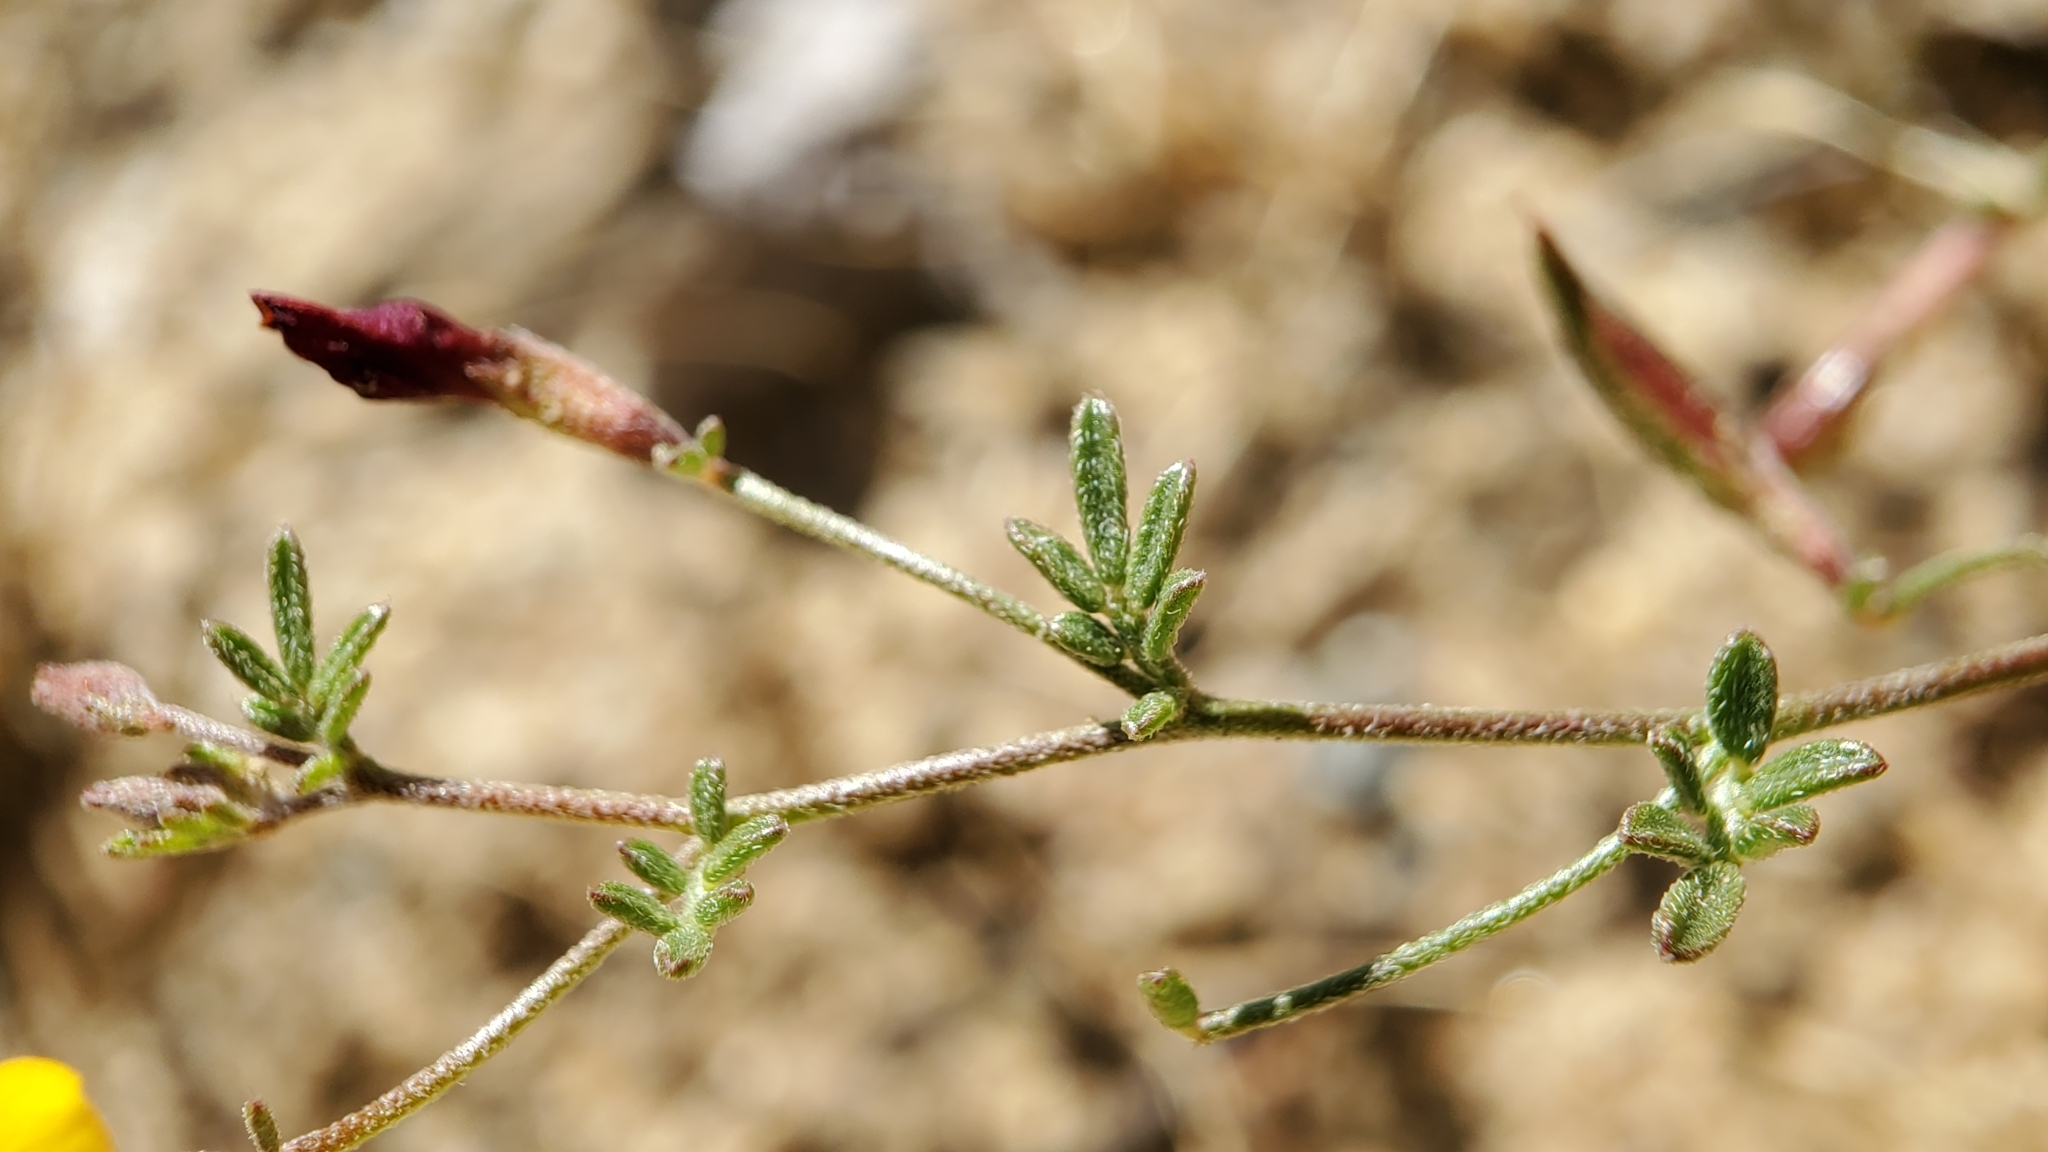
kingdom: Plantae
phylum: Tracheophyta
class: Magnoliopsida
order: Fabales
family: Fabaceae
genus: Acmispon
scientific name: Acmispon strigosus
